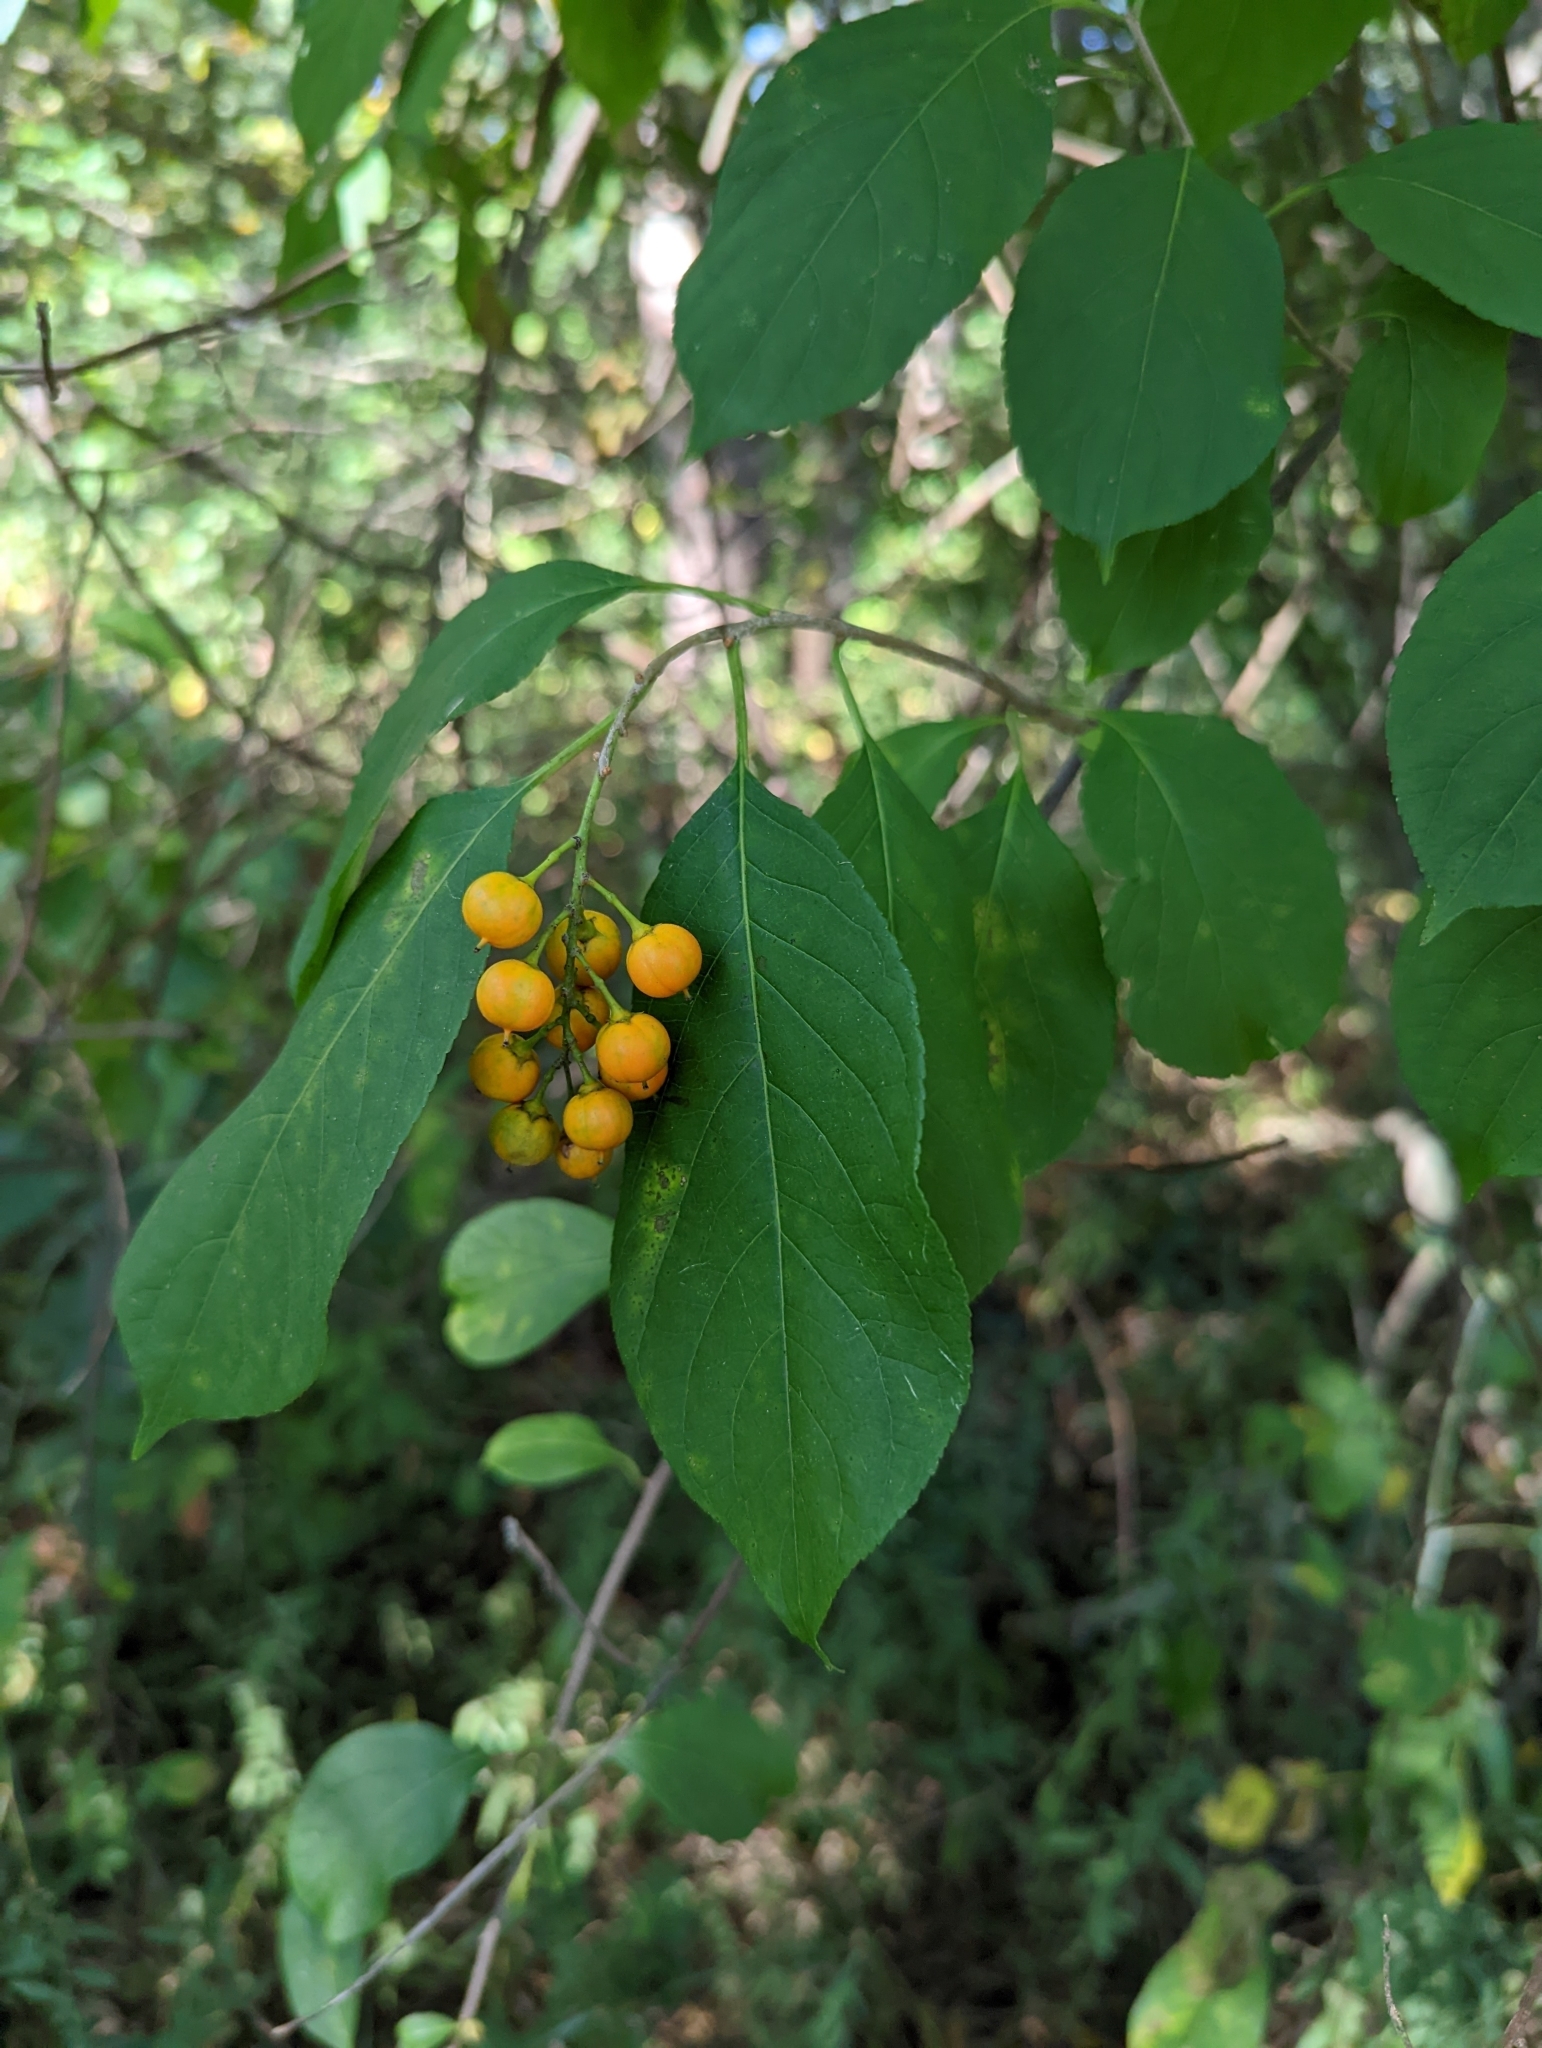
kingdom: Plantae
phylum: Tracheophyta
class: Magnoliopsida
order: Celastrales
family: Celastraceae
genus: Celastrus
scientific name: Celastrus scandens
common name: American bittersweet
